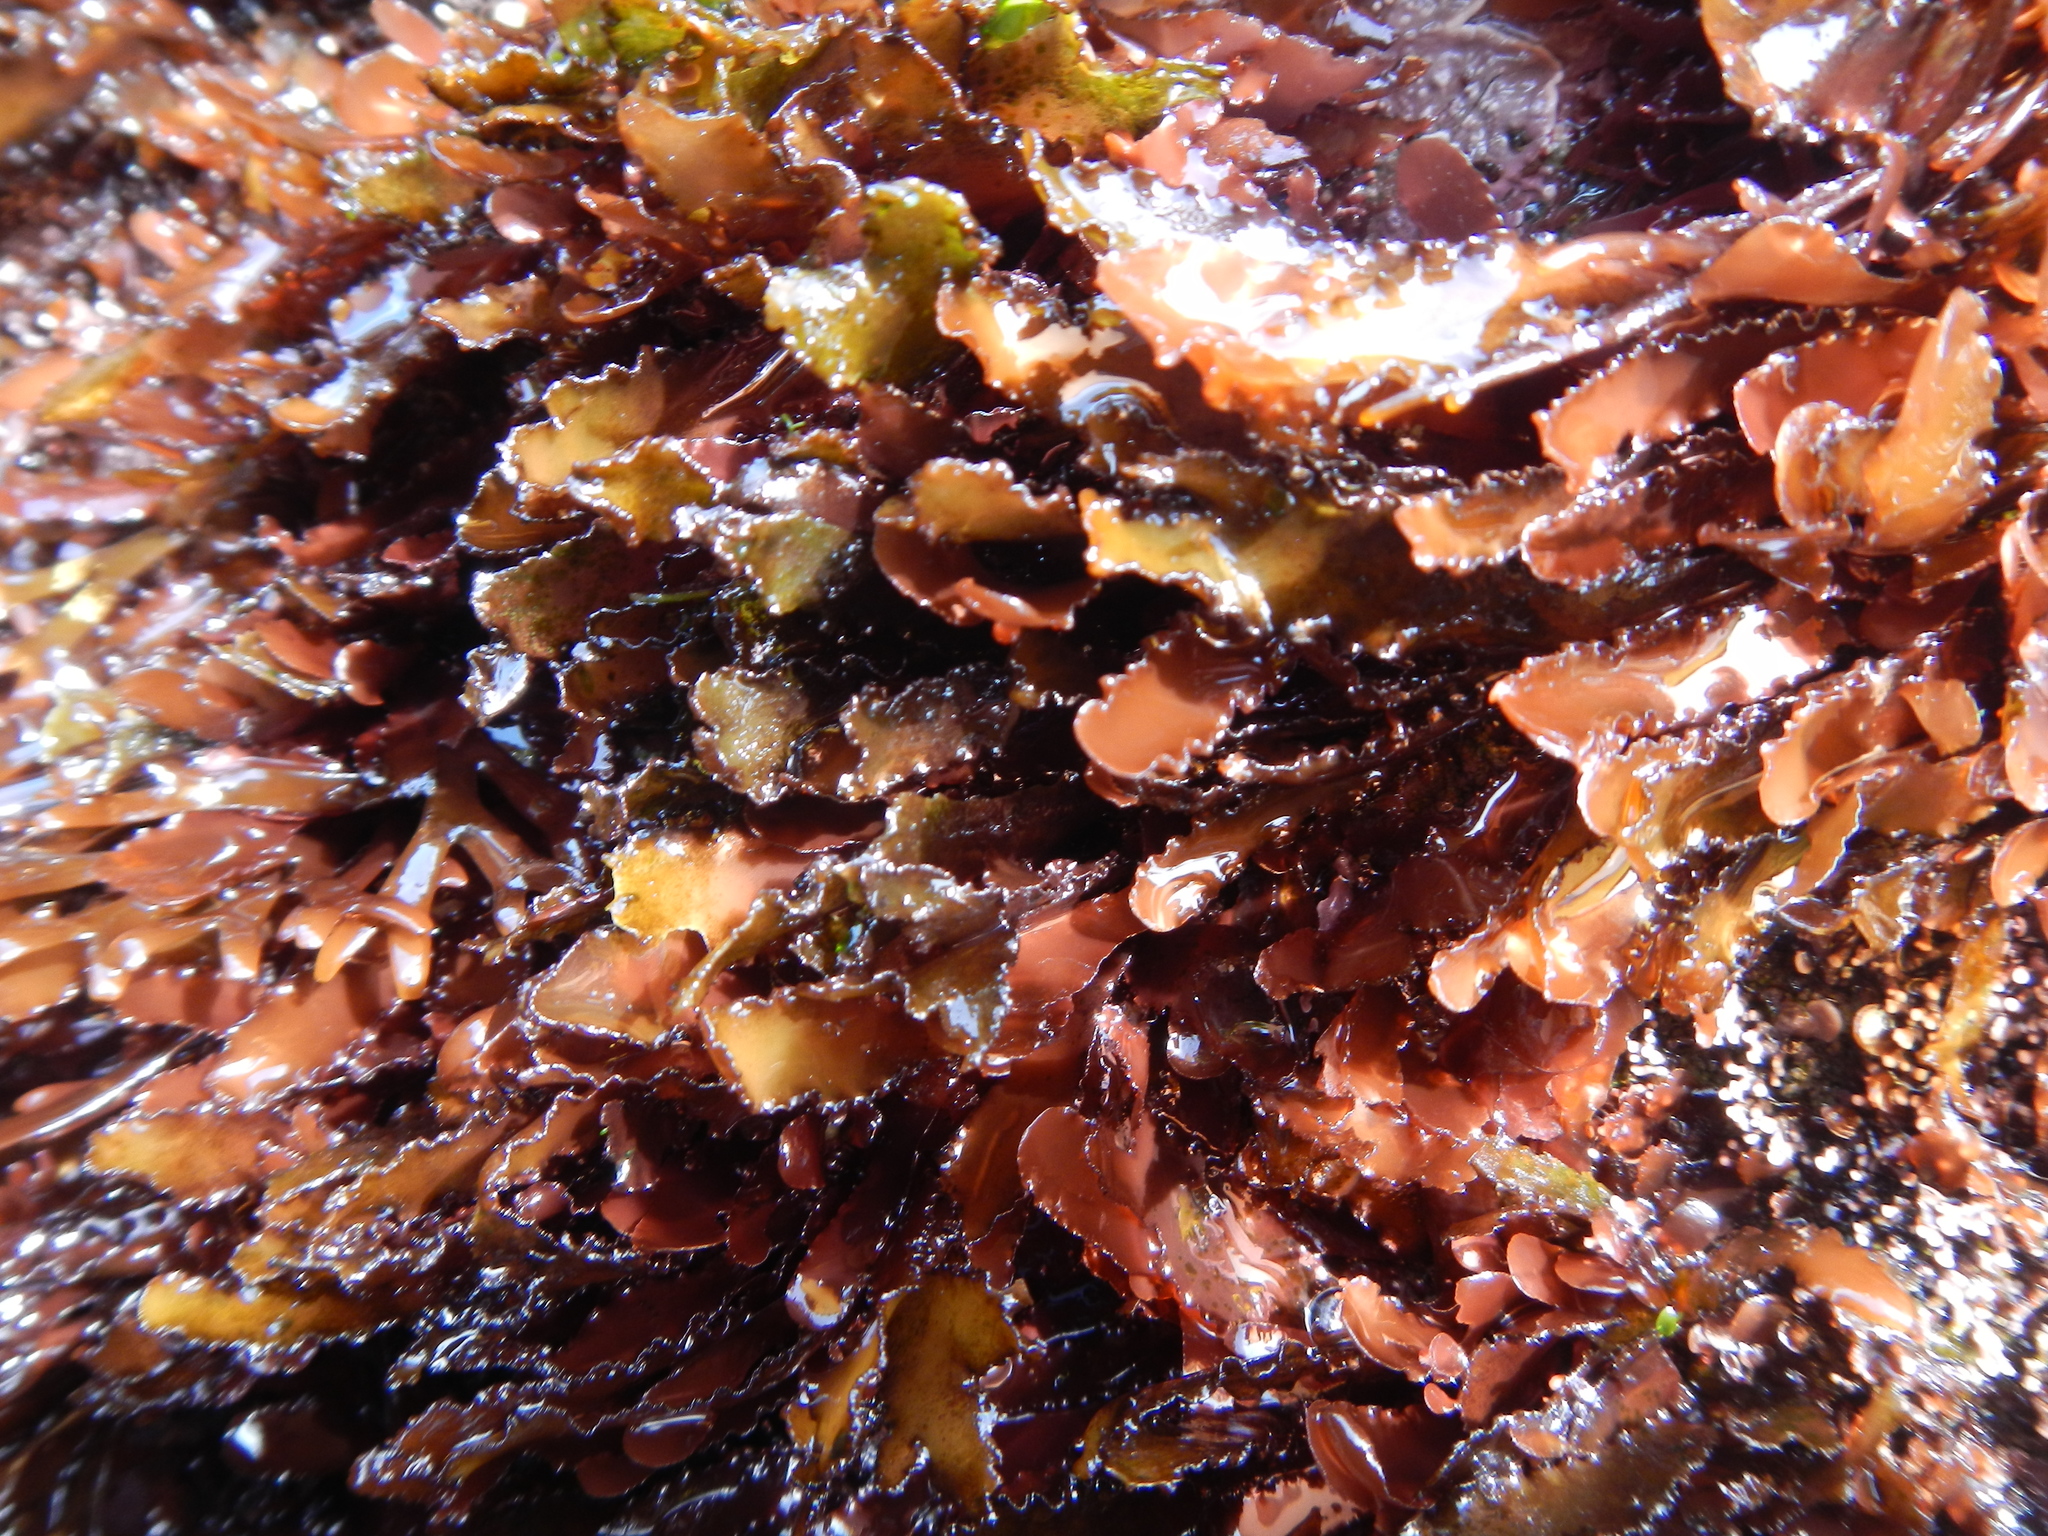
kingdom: Plantae
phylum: Rhodophyta
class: Florideophyceae
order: Gigartinales
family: Phyllophoraceae
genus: Schottera
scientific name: Schottera nicaeensis
